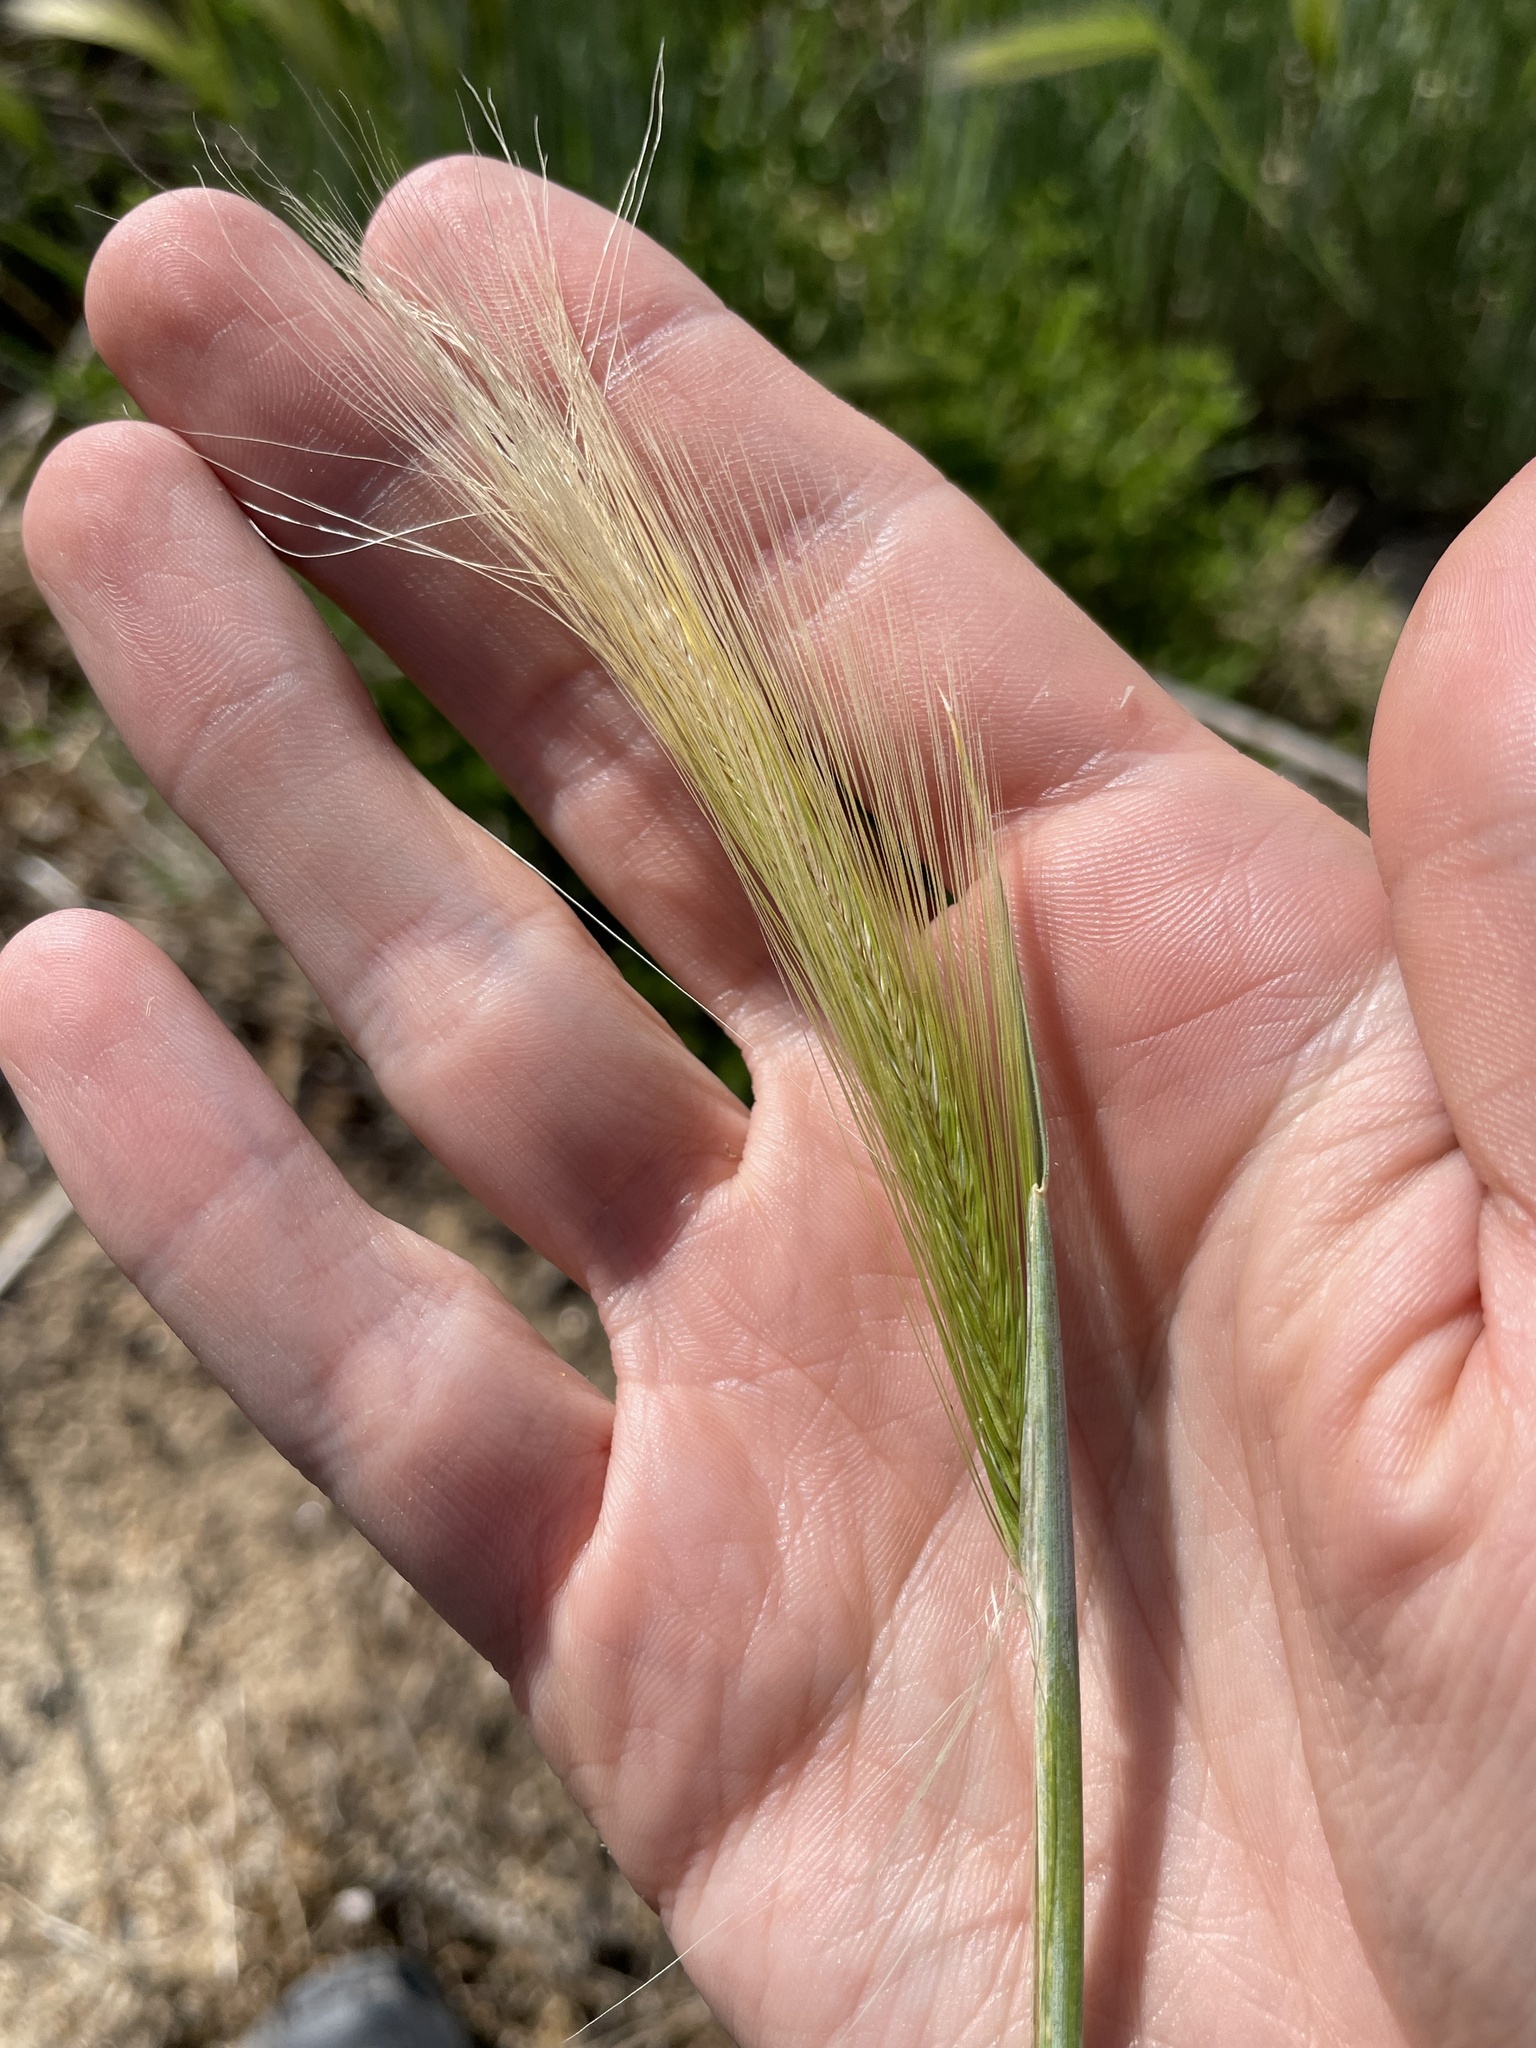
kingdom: Plantae
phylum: Tracheophyta
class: Liliopsida
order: Poales
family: Poaceae
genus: Hordeum
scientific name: Hordeum jubatum
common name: Foxtail barley
